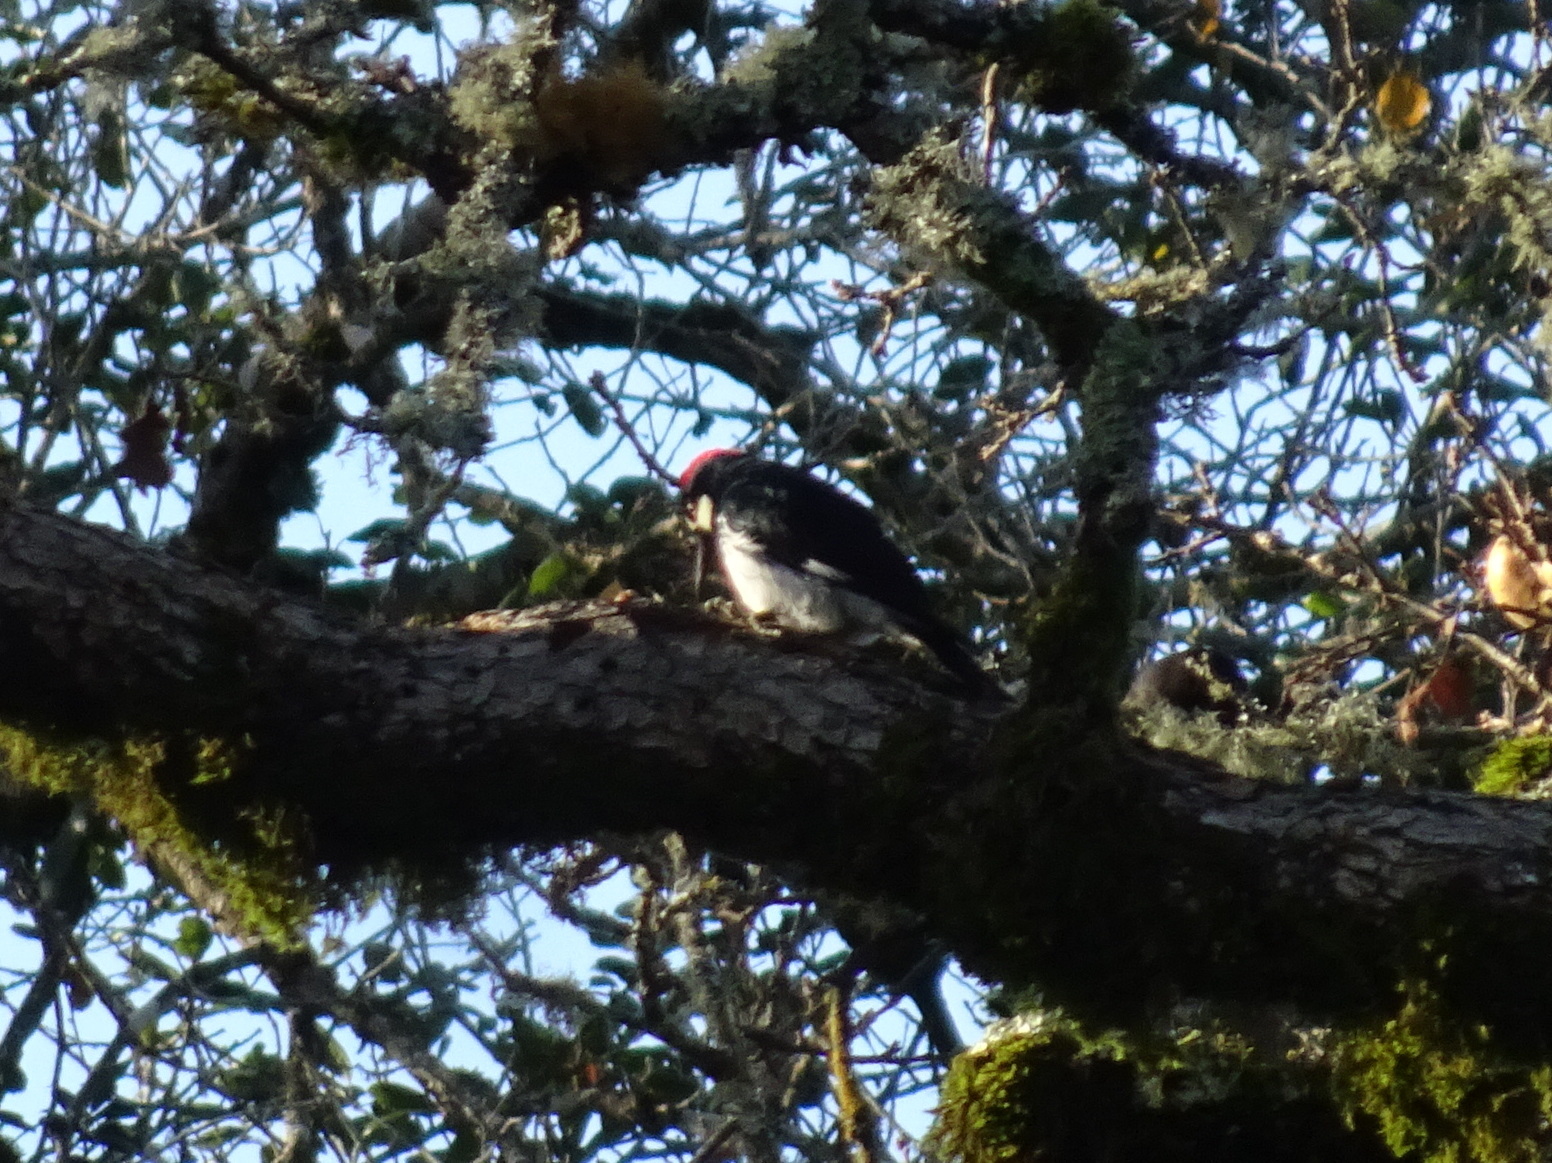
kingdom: Animalia
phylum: Chordata
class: Aves
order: Piciformes
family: Picidae
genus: Melanerpes
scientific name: Melanerpes formicivorus
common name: Acorn woodpecker
